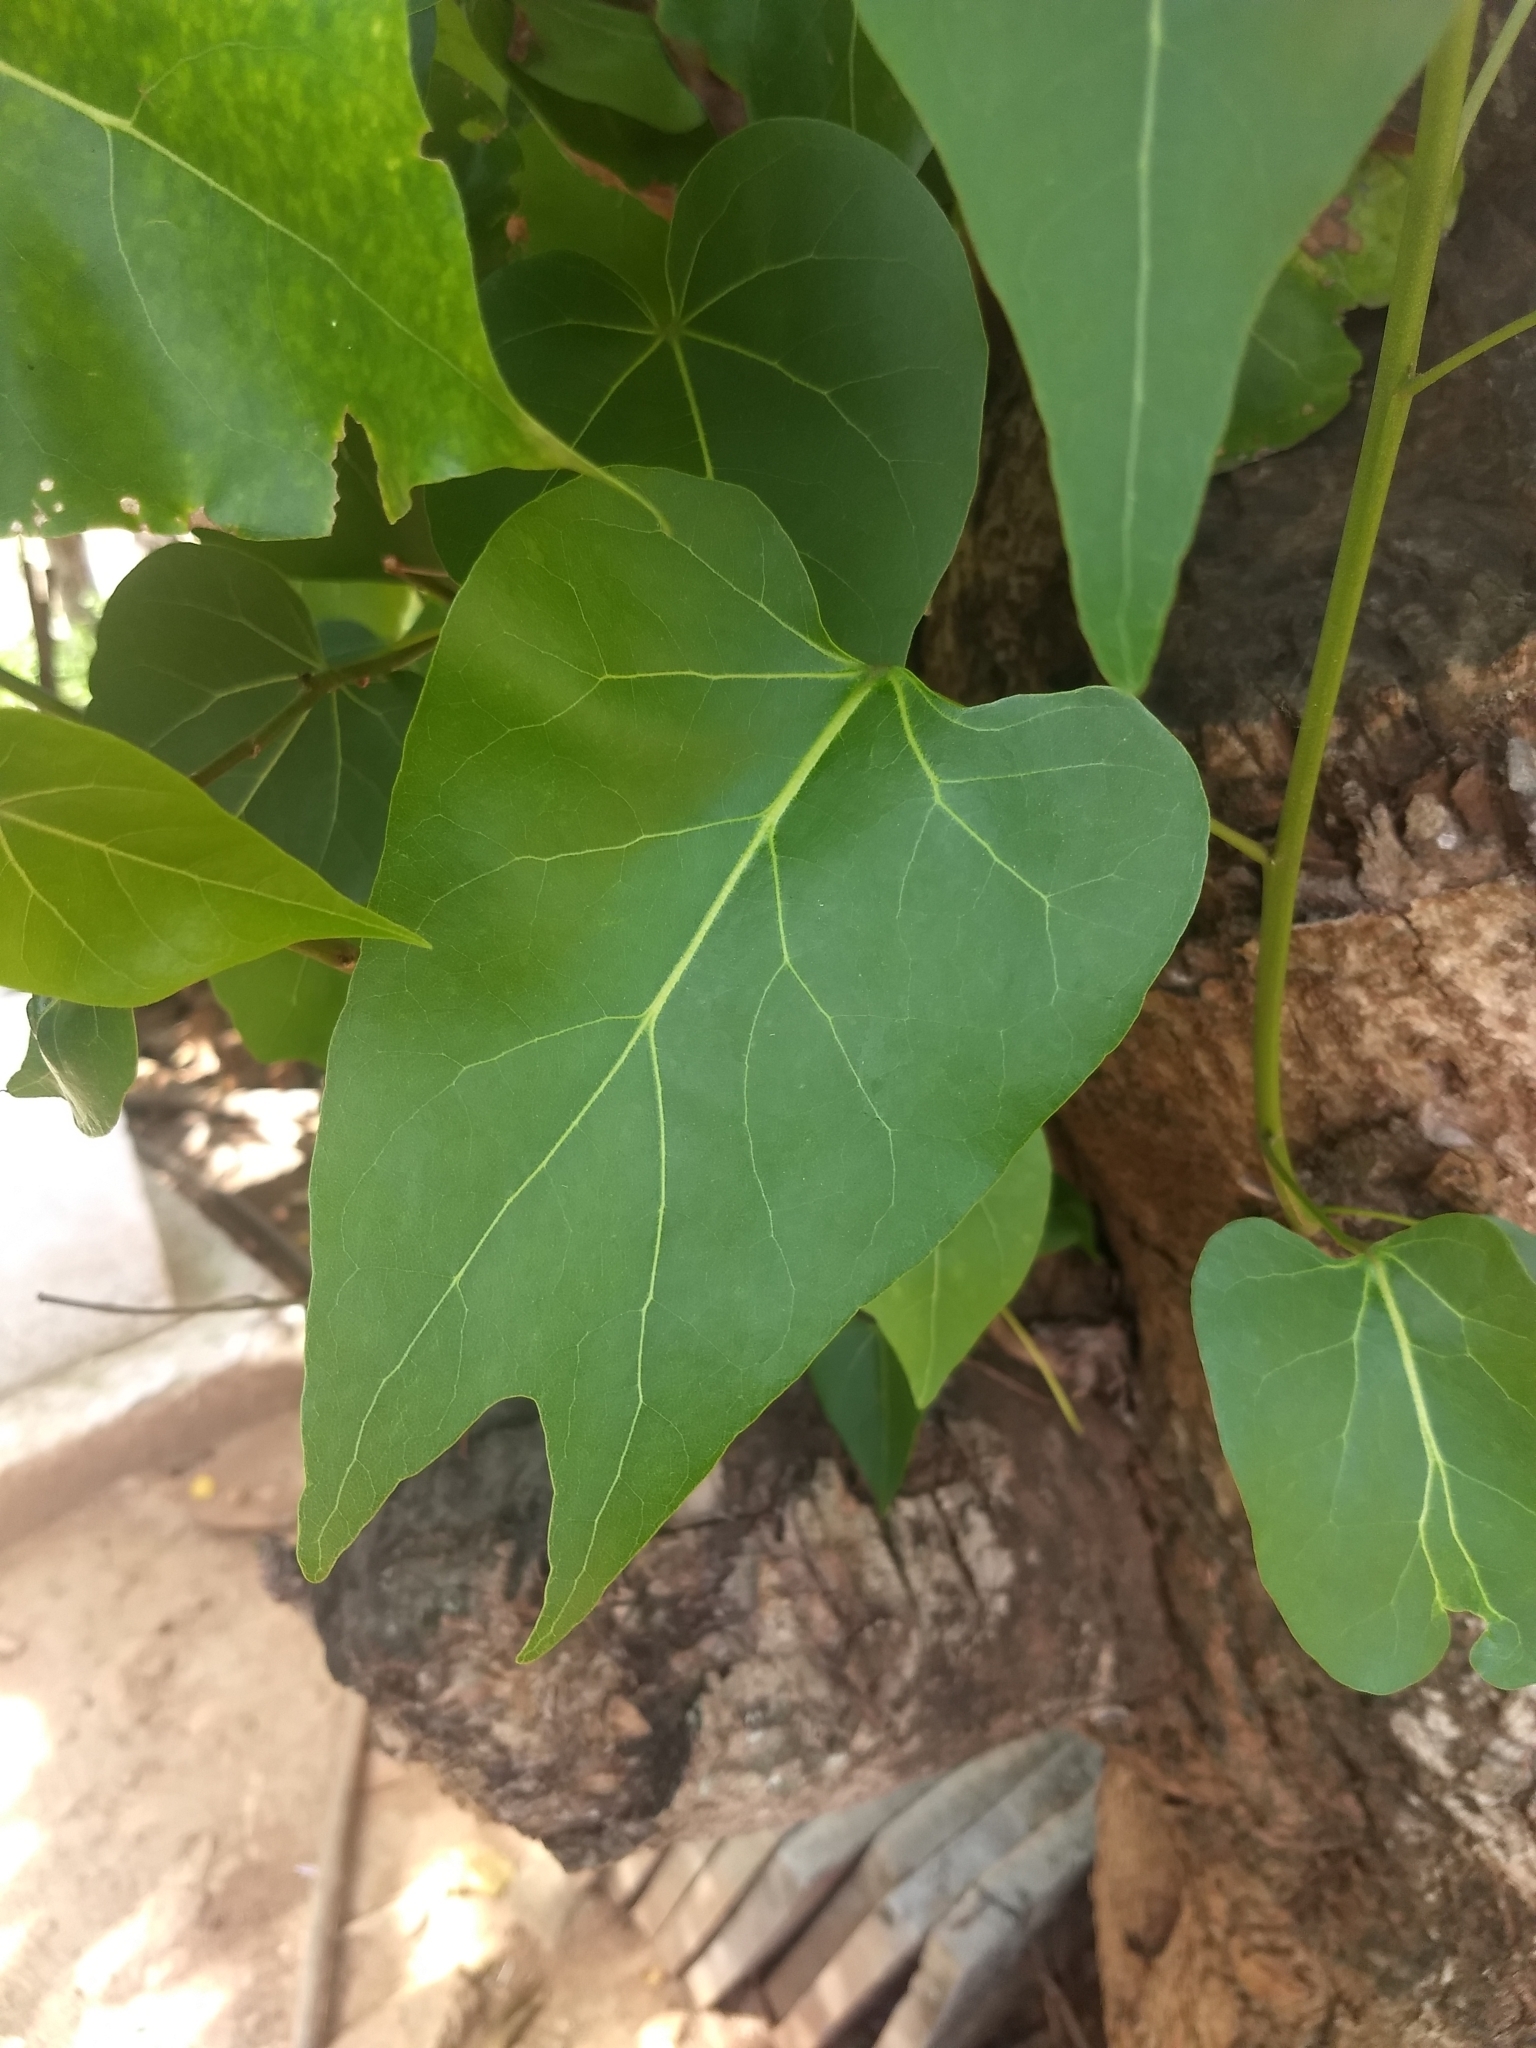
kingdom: Plantae
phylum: Tracheophyta
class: Magnoliopsida
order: Malvales
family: Malvaceae
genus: Thespesia
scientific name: Thespesia populnea
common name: Seaside mahoe
